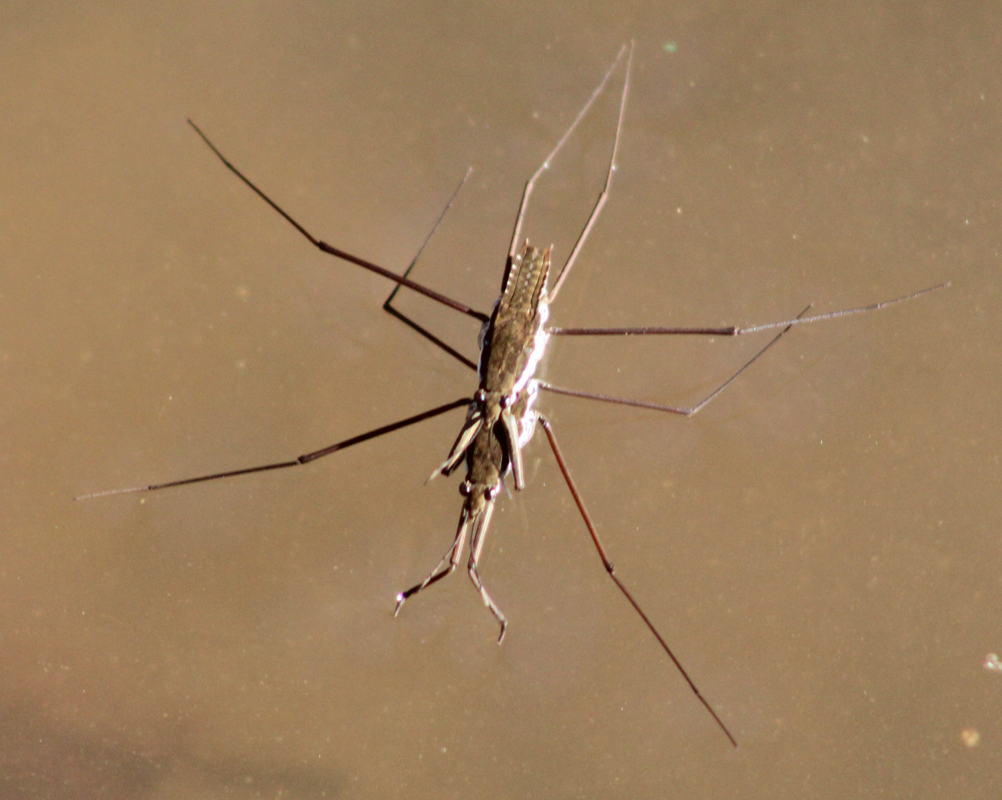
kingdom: Animalia
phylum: Arthropoda
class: Insecta
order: Hemiptera
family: Gerridae
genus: Aquarius
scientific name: Aquarius remigis
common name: Common water strider
